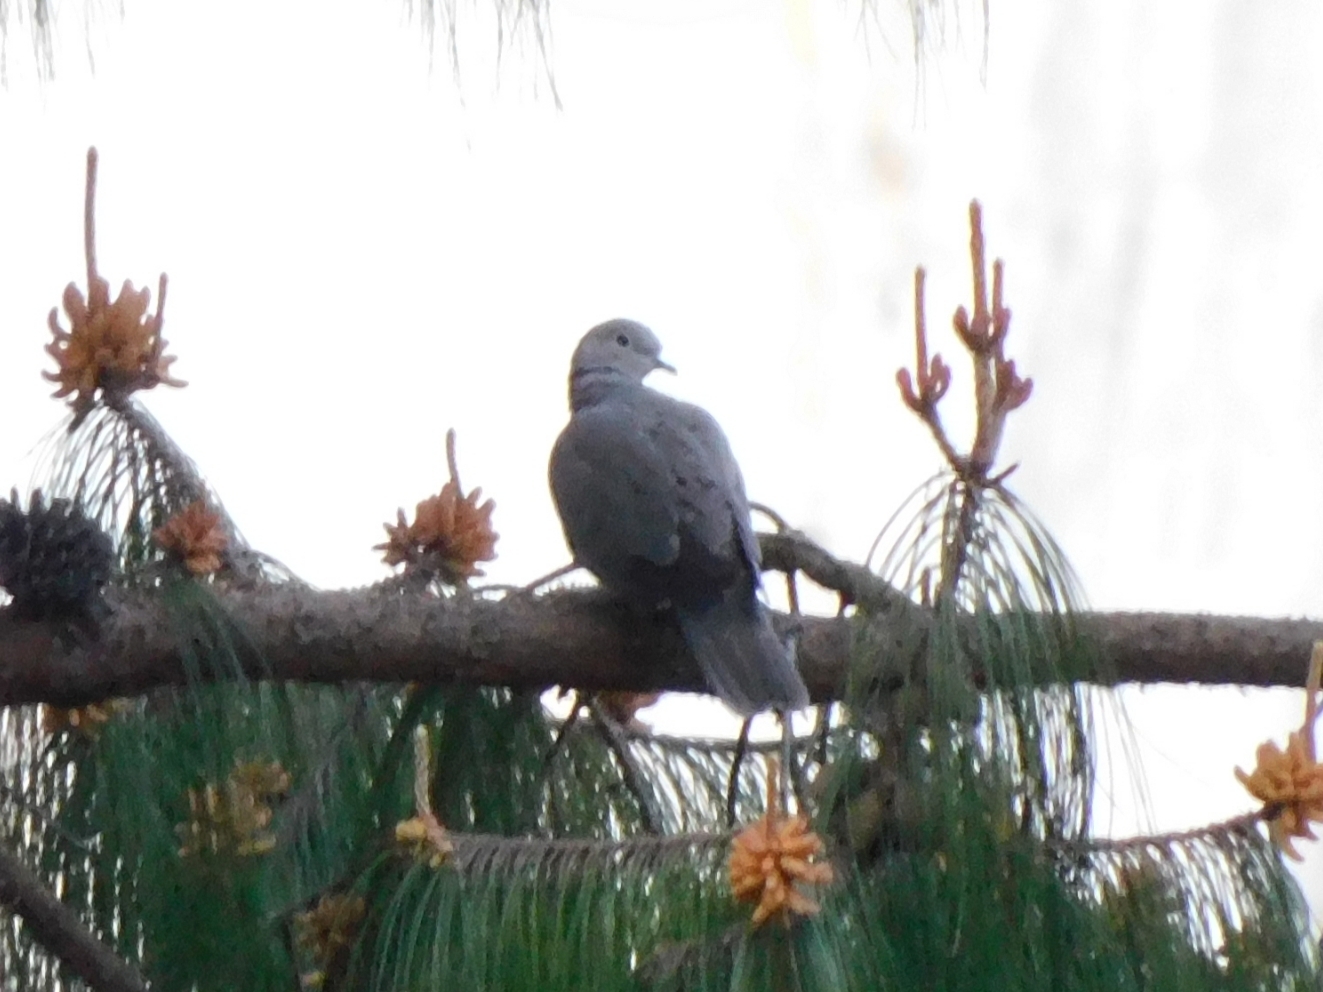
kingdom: Animalia
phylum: Chordata
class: Aves
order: Columbiformes
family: Columbidae
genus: Streptopelia
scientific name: Streptopelia decaocto
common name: Eurasian collared dove
